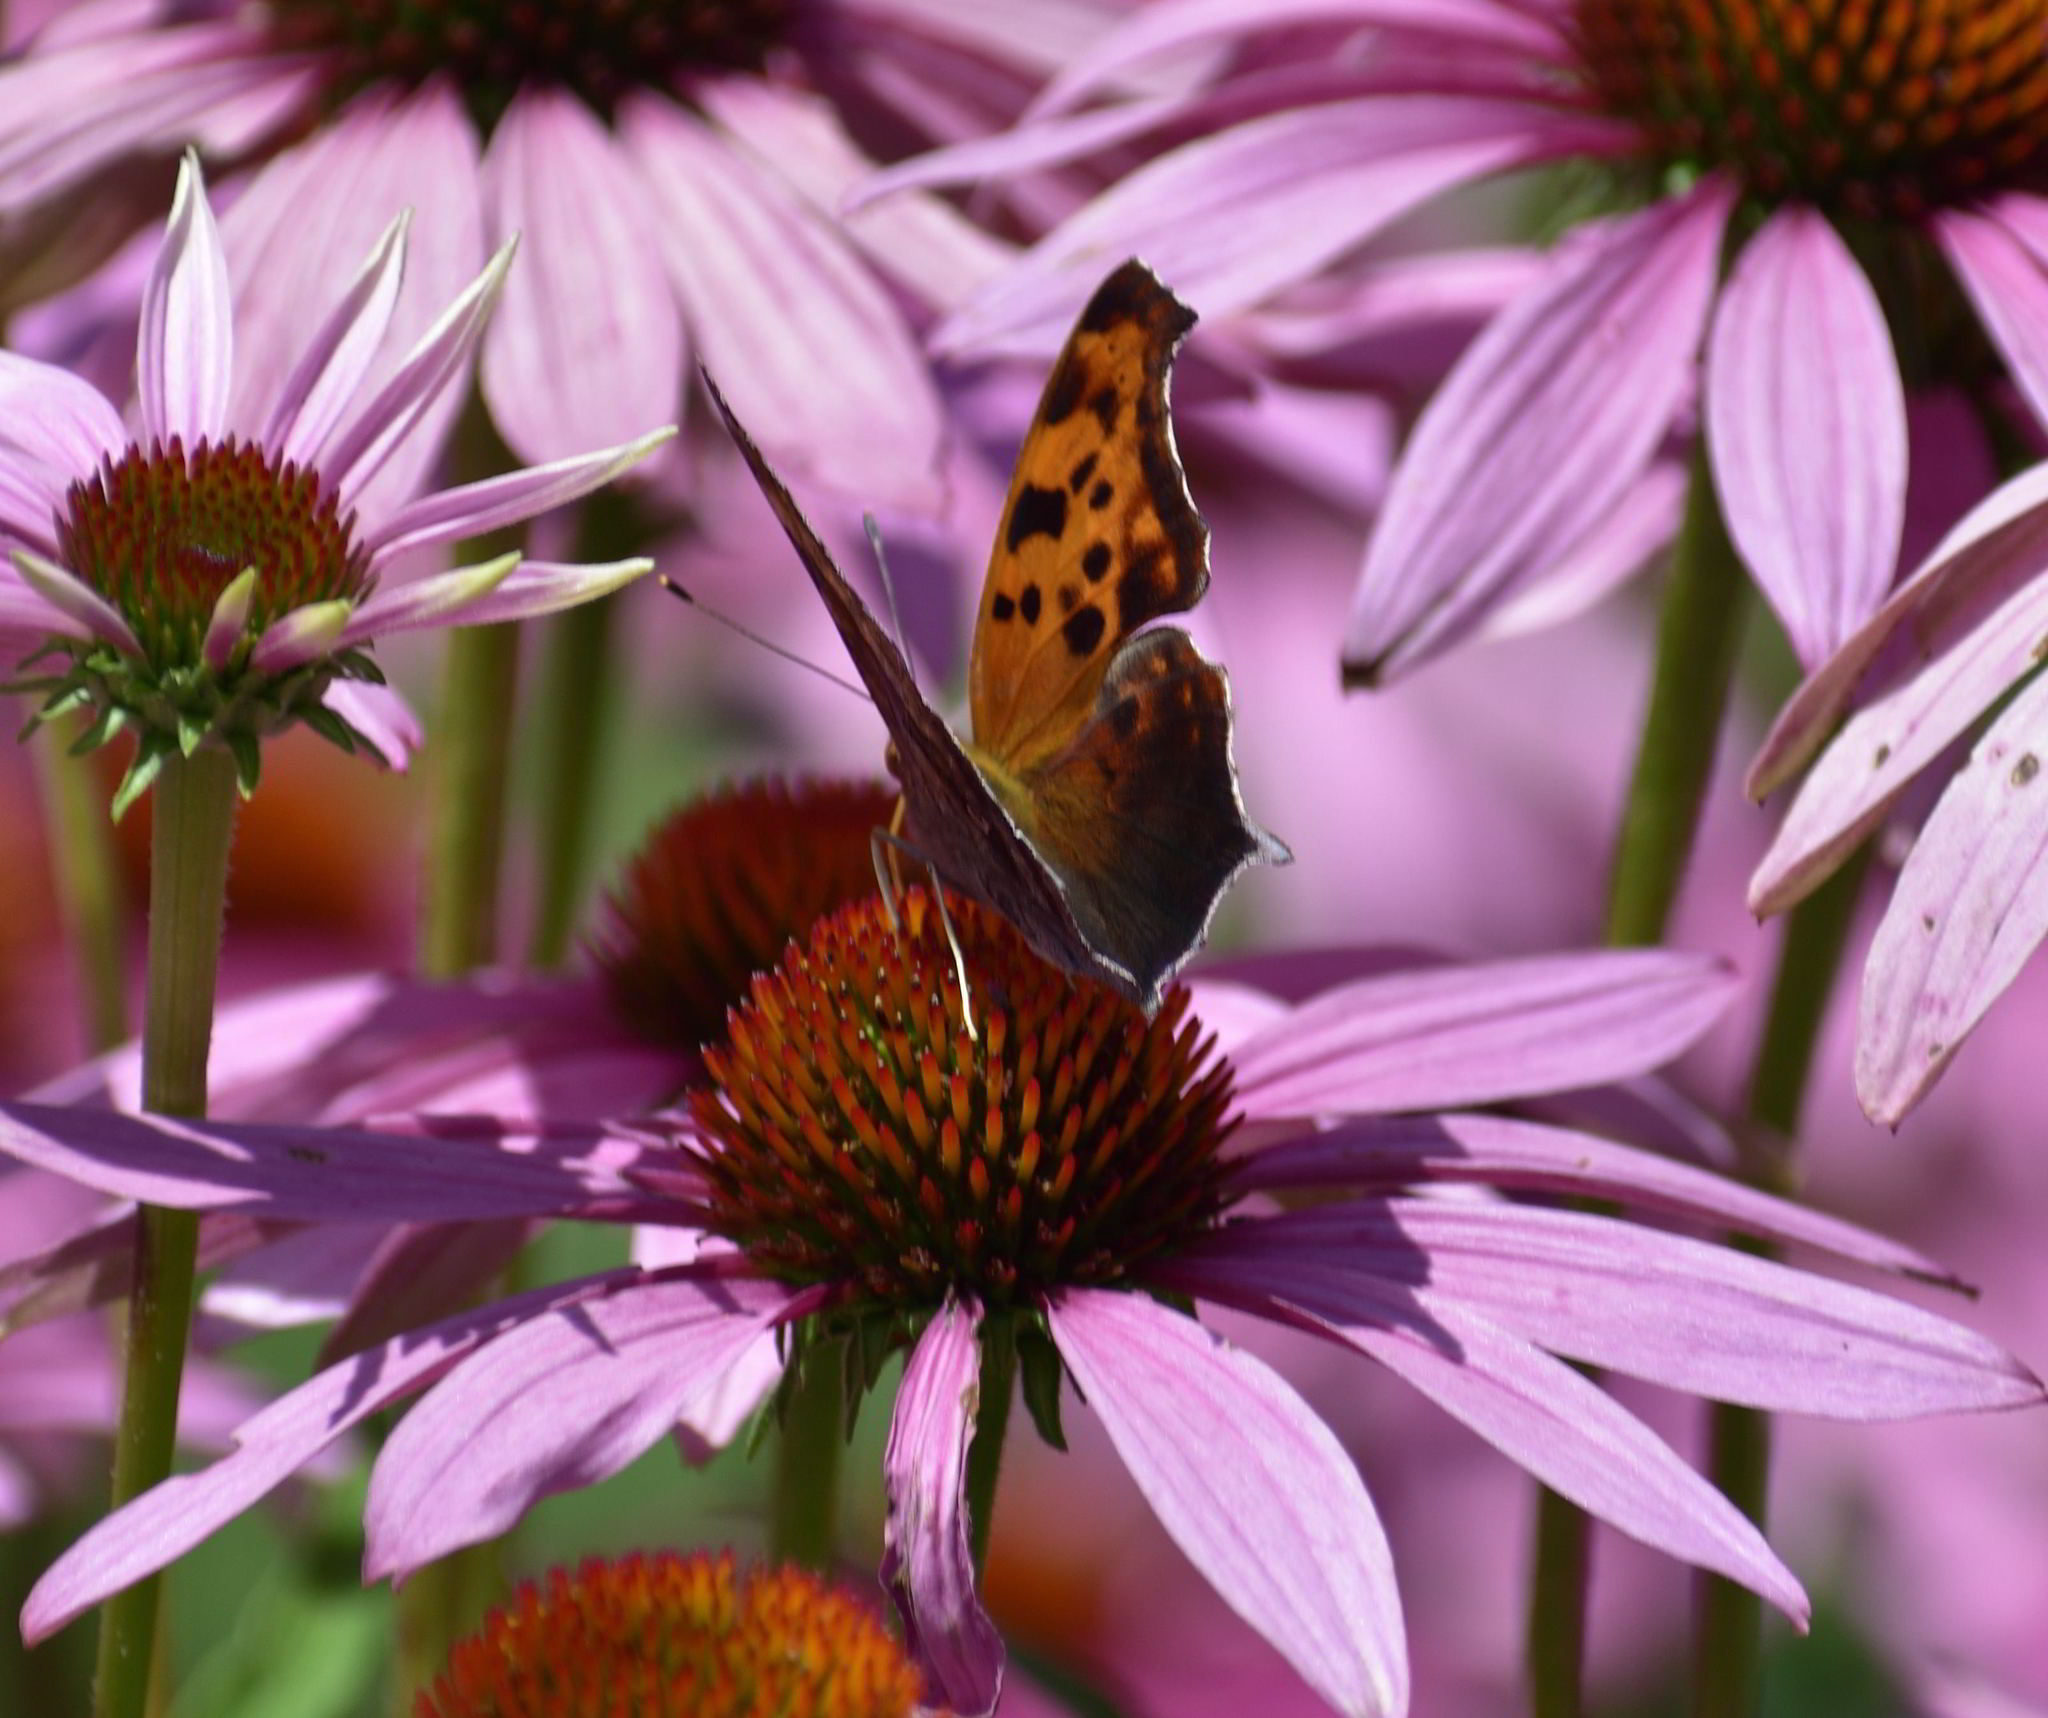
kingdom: Animalia
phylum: Arthropoda
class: Insecta
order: Lepidoptera
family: Nymphalidae
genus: Polygonia
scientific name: Polygonia interrogationis
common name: Question mark
